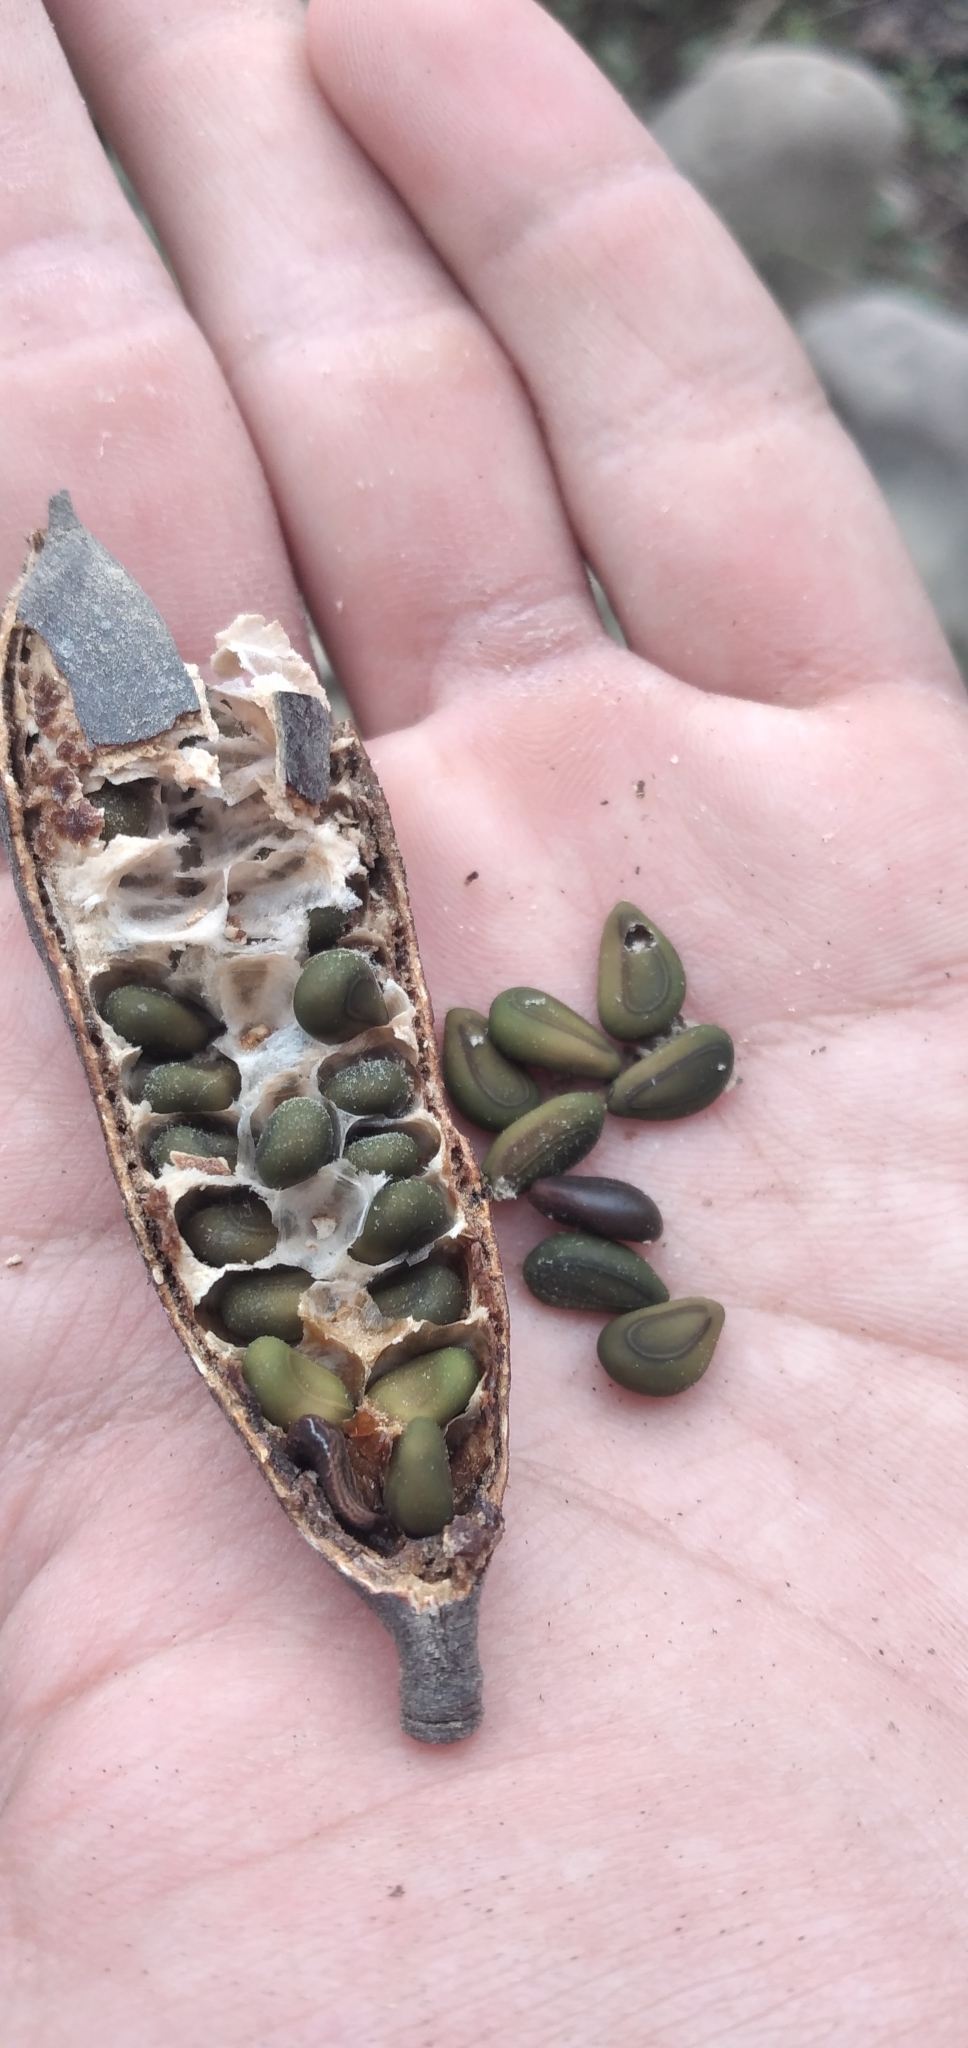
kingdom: Plantae
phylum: Tracheophyta
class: Magnoliopsida
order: Fabales
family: Fabaceae
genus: Vachellia
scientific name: Vachellia caven
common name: Roman cassie
